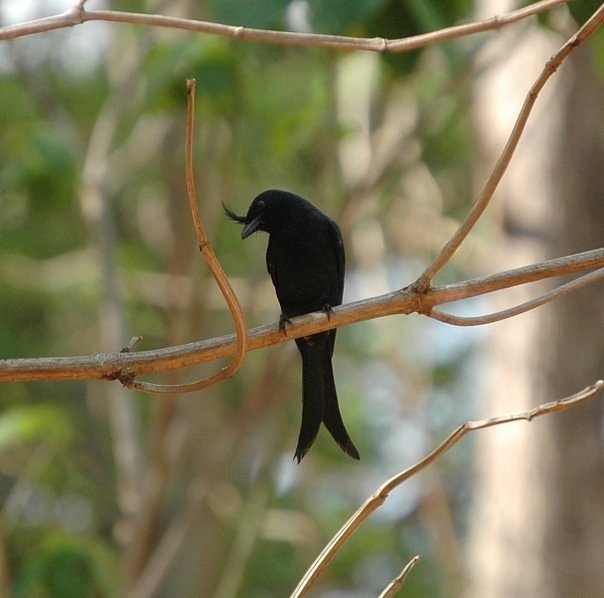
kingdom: Animalia
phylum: Chordata
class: Aves
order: Passeriformes
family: Dicruridae
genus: Dicrurus
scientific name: Dicrurus forficatus
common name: Crested drongo
